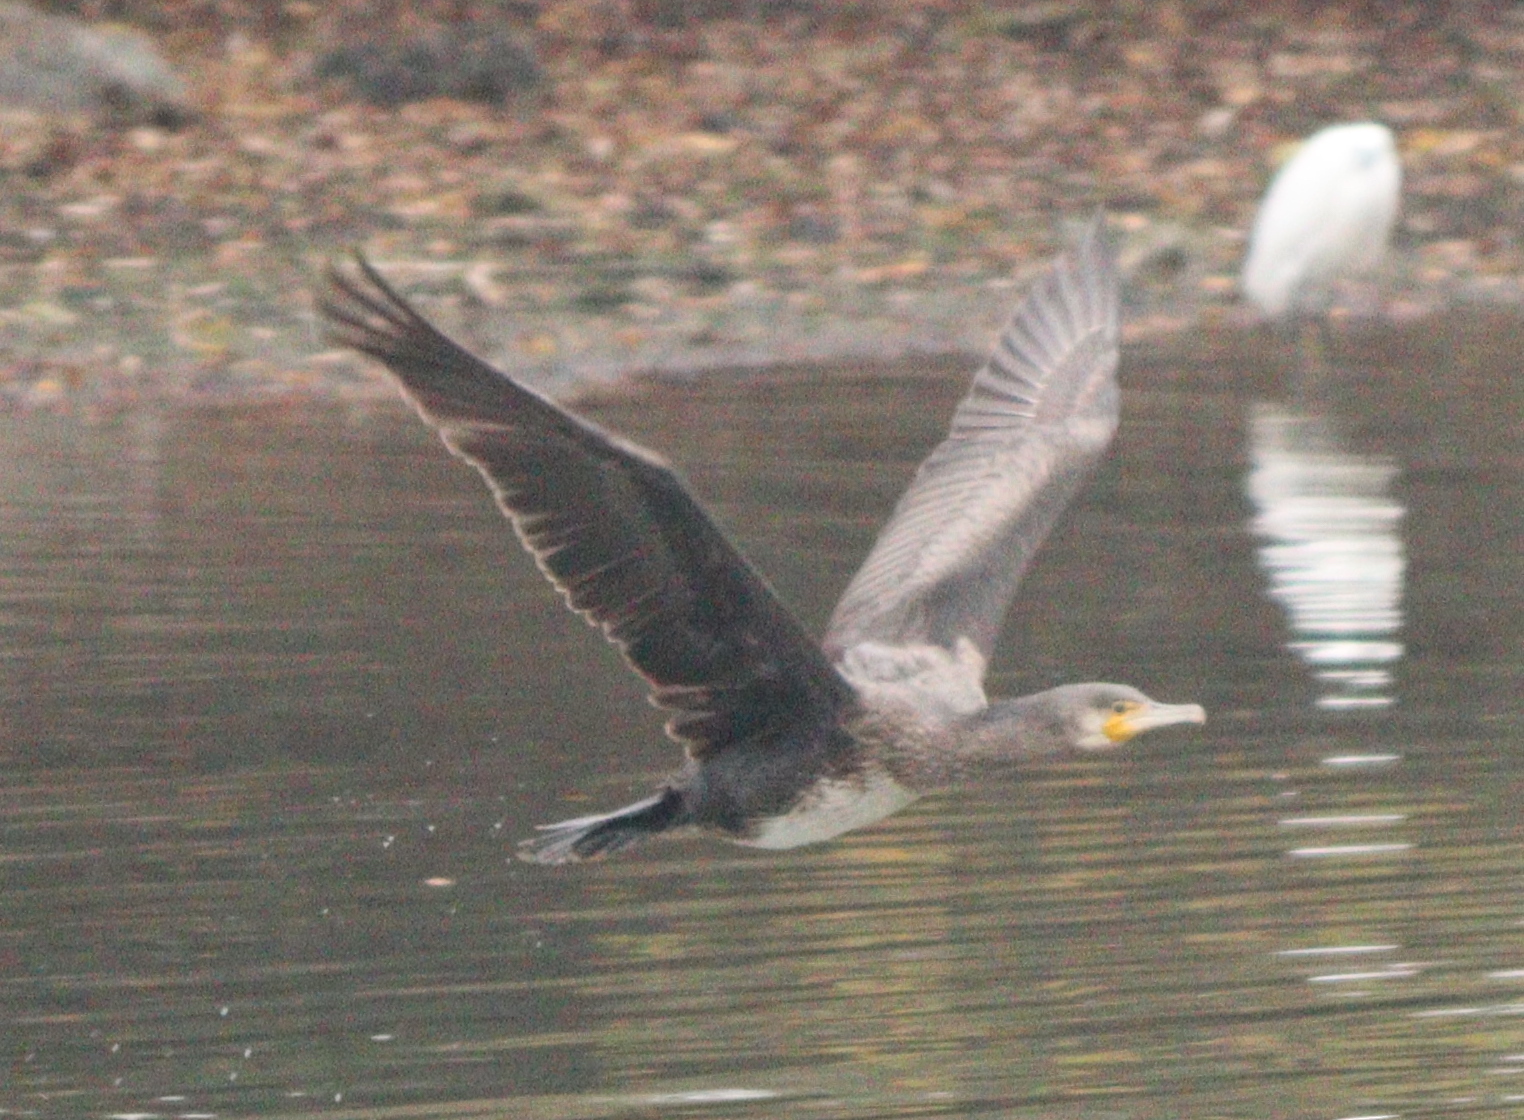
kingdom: Animalia
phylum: Chordata
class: Aves
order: Suliformes
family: Phalacrocoracidae
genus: Phalacrocorax
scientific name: Phalacrocorax carbo
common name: Great cormorant
